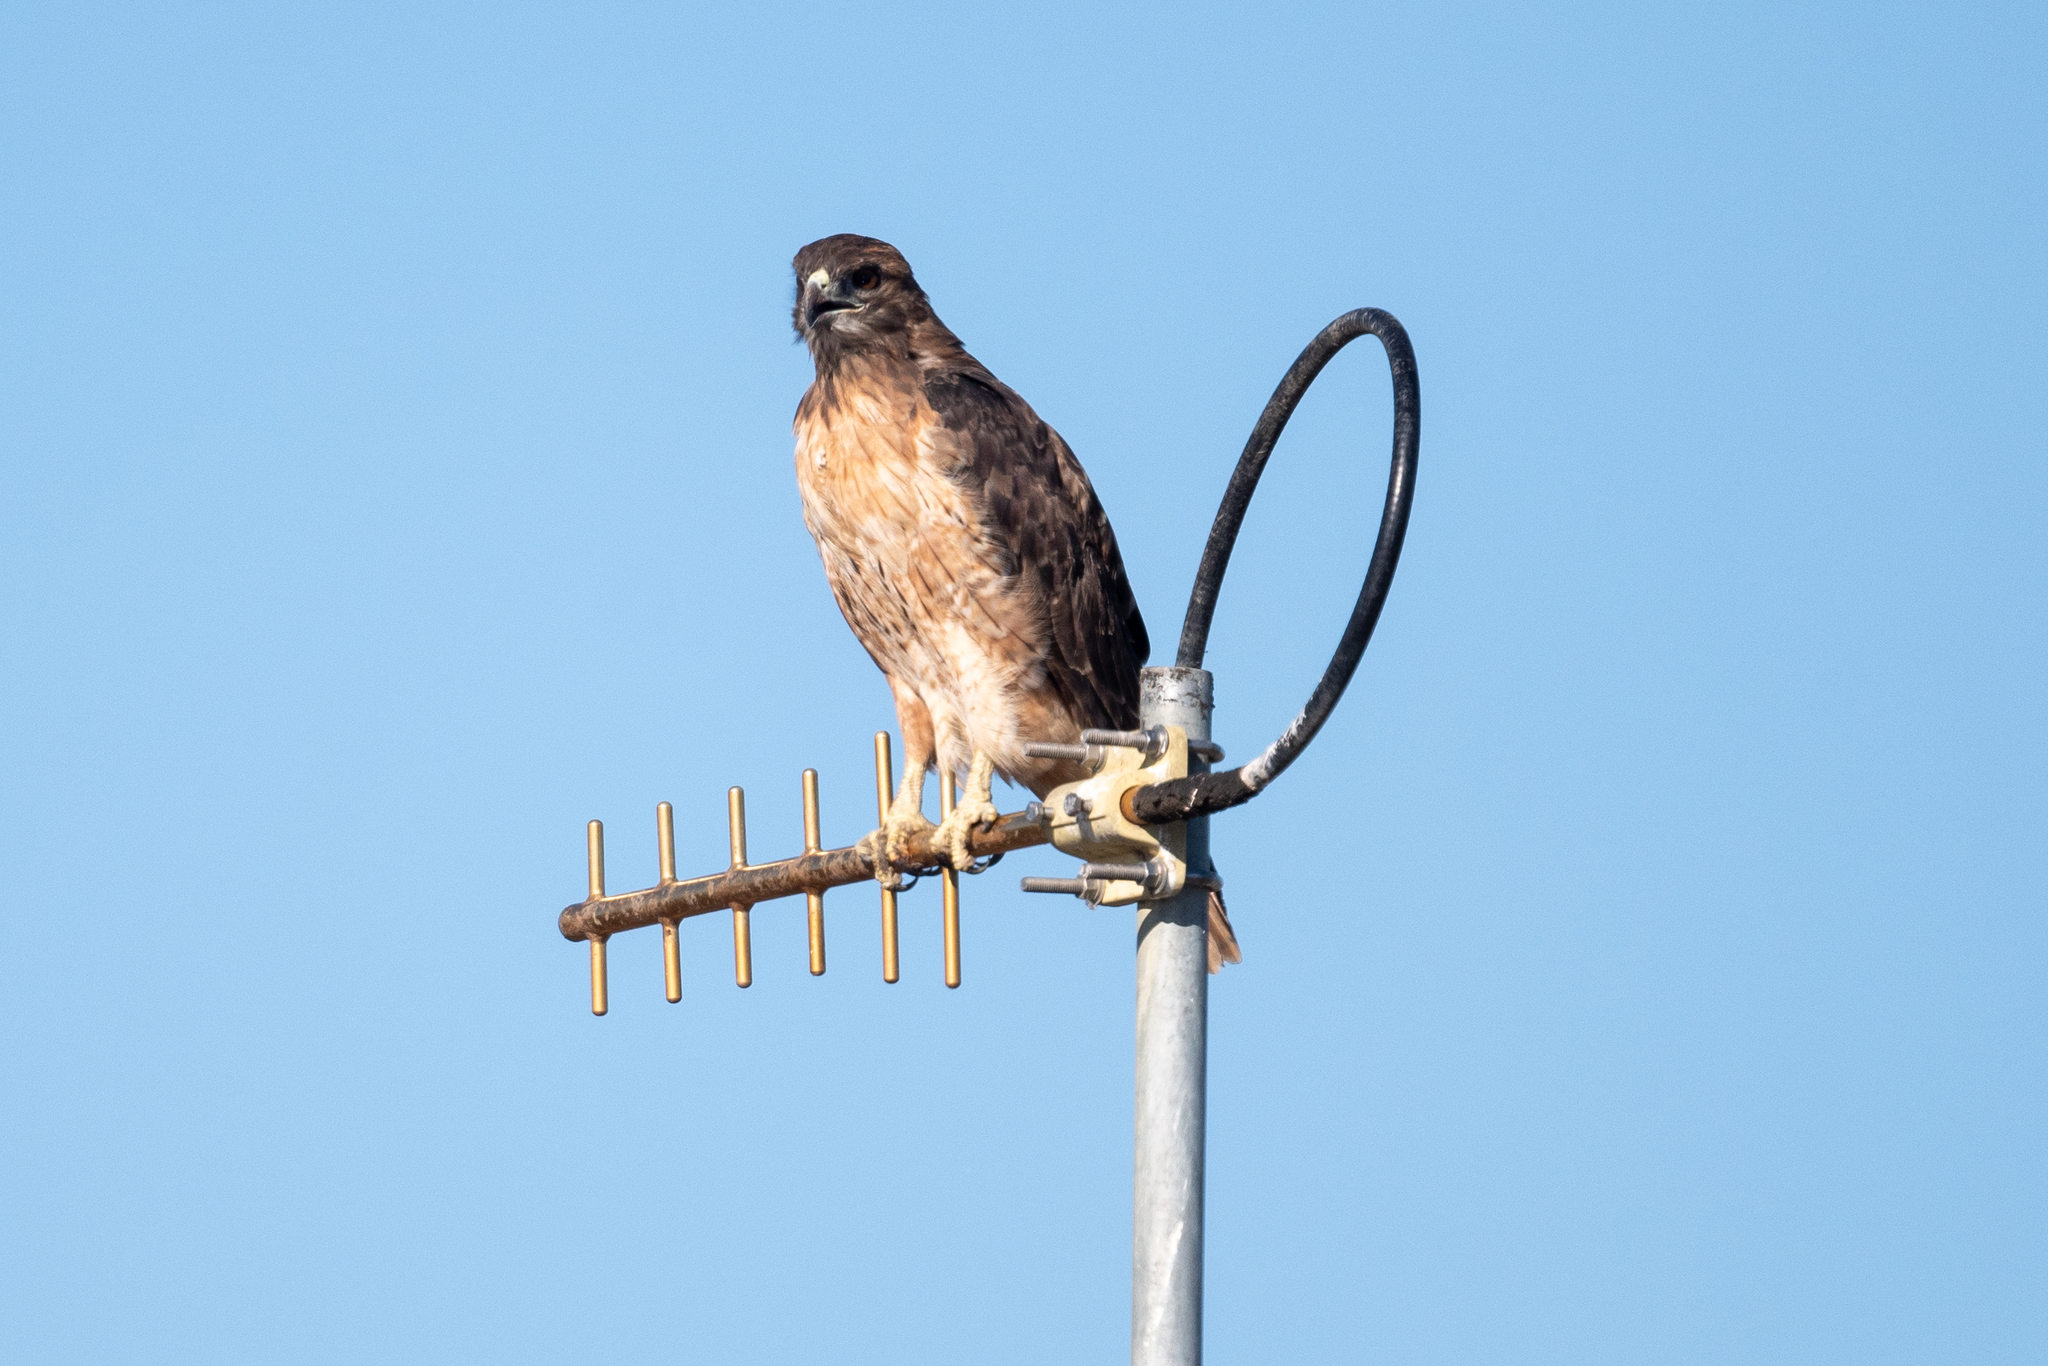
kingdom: Animalia
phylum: Chordata
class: Aves
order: Accipitriformes
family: Accipitridae
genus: Buteo
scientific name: Buteo jamaicensis
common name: Red-tailed hawk
